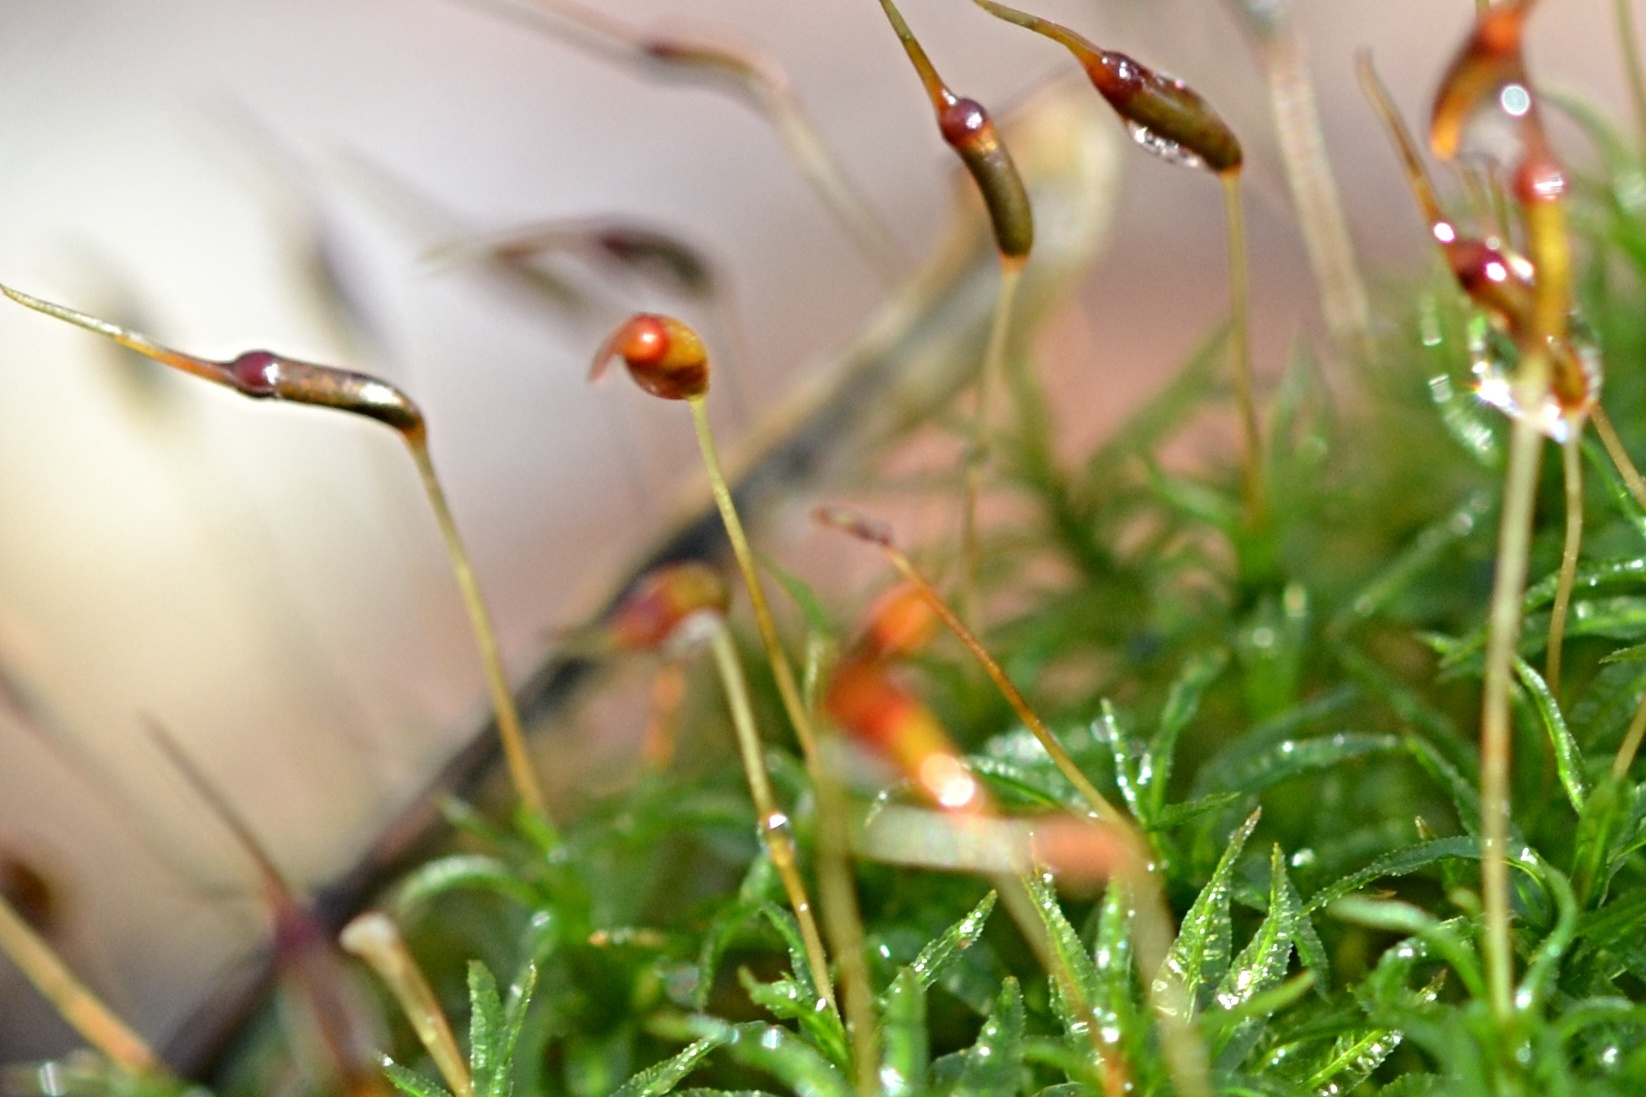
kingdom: Plantae
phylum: Bryophyta
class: Polytrichopsida
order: Polytrichales
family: Polytrichaceae
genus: Atrichum
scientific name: Atrichum undulatum
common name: Common smoothcap
